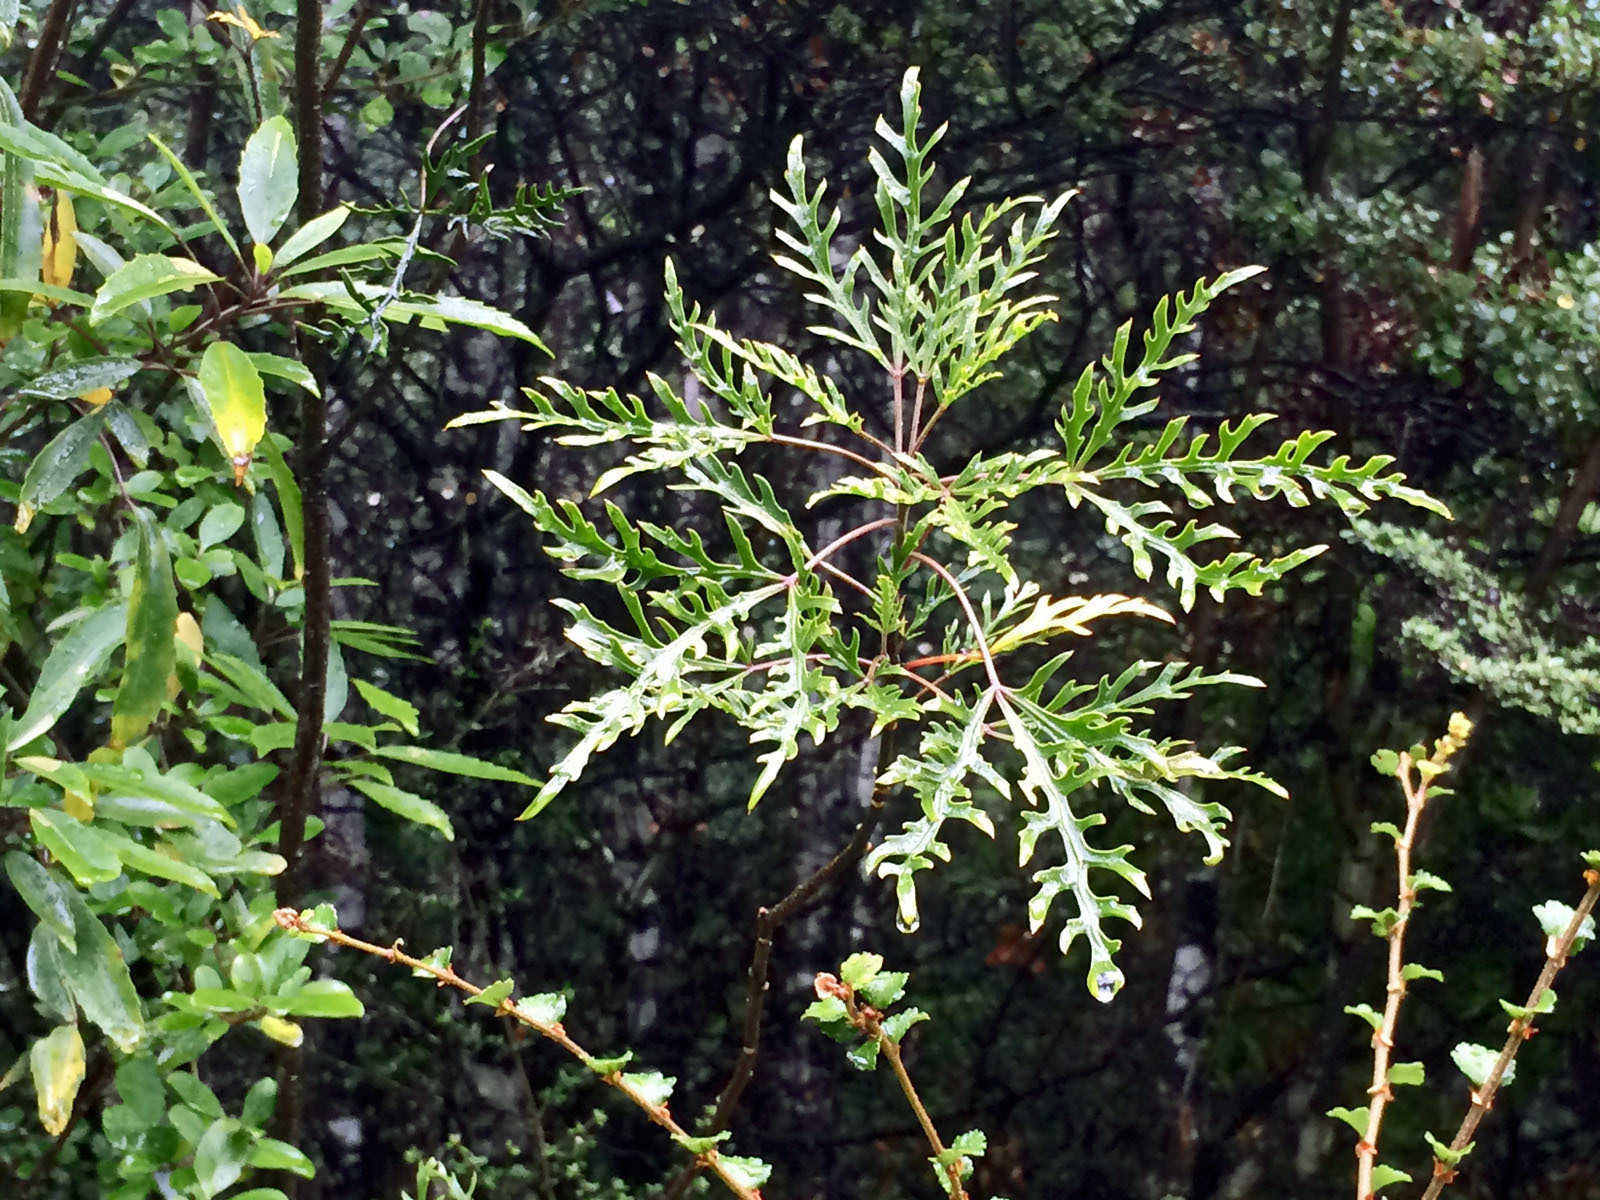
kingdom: Plantae
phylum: Tracheophyta
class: Magnoliopsida
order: Apiales
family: Araliaceae
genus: Raukaua
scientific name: Raukaua simplex
